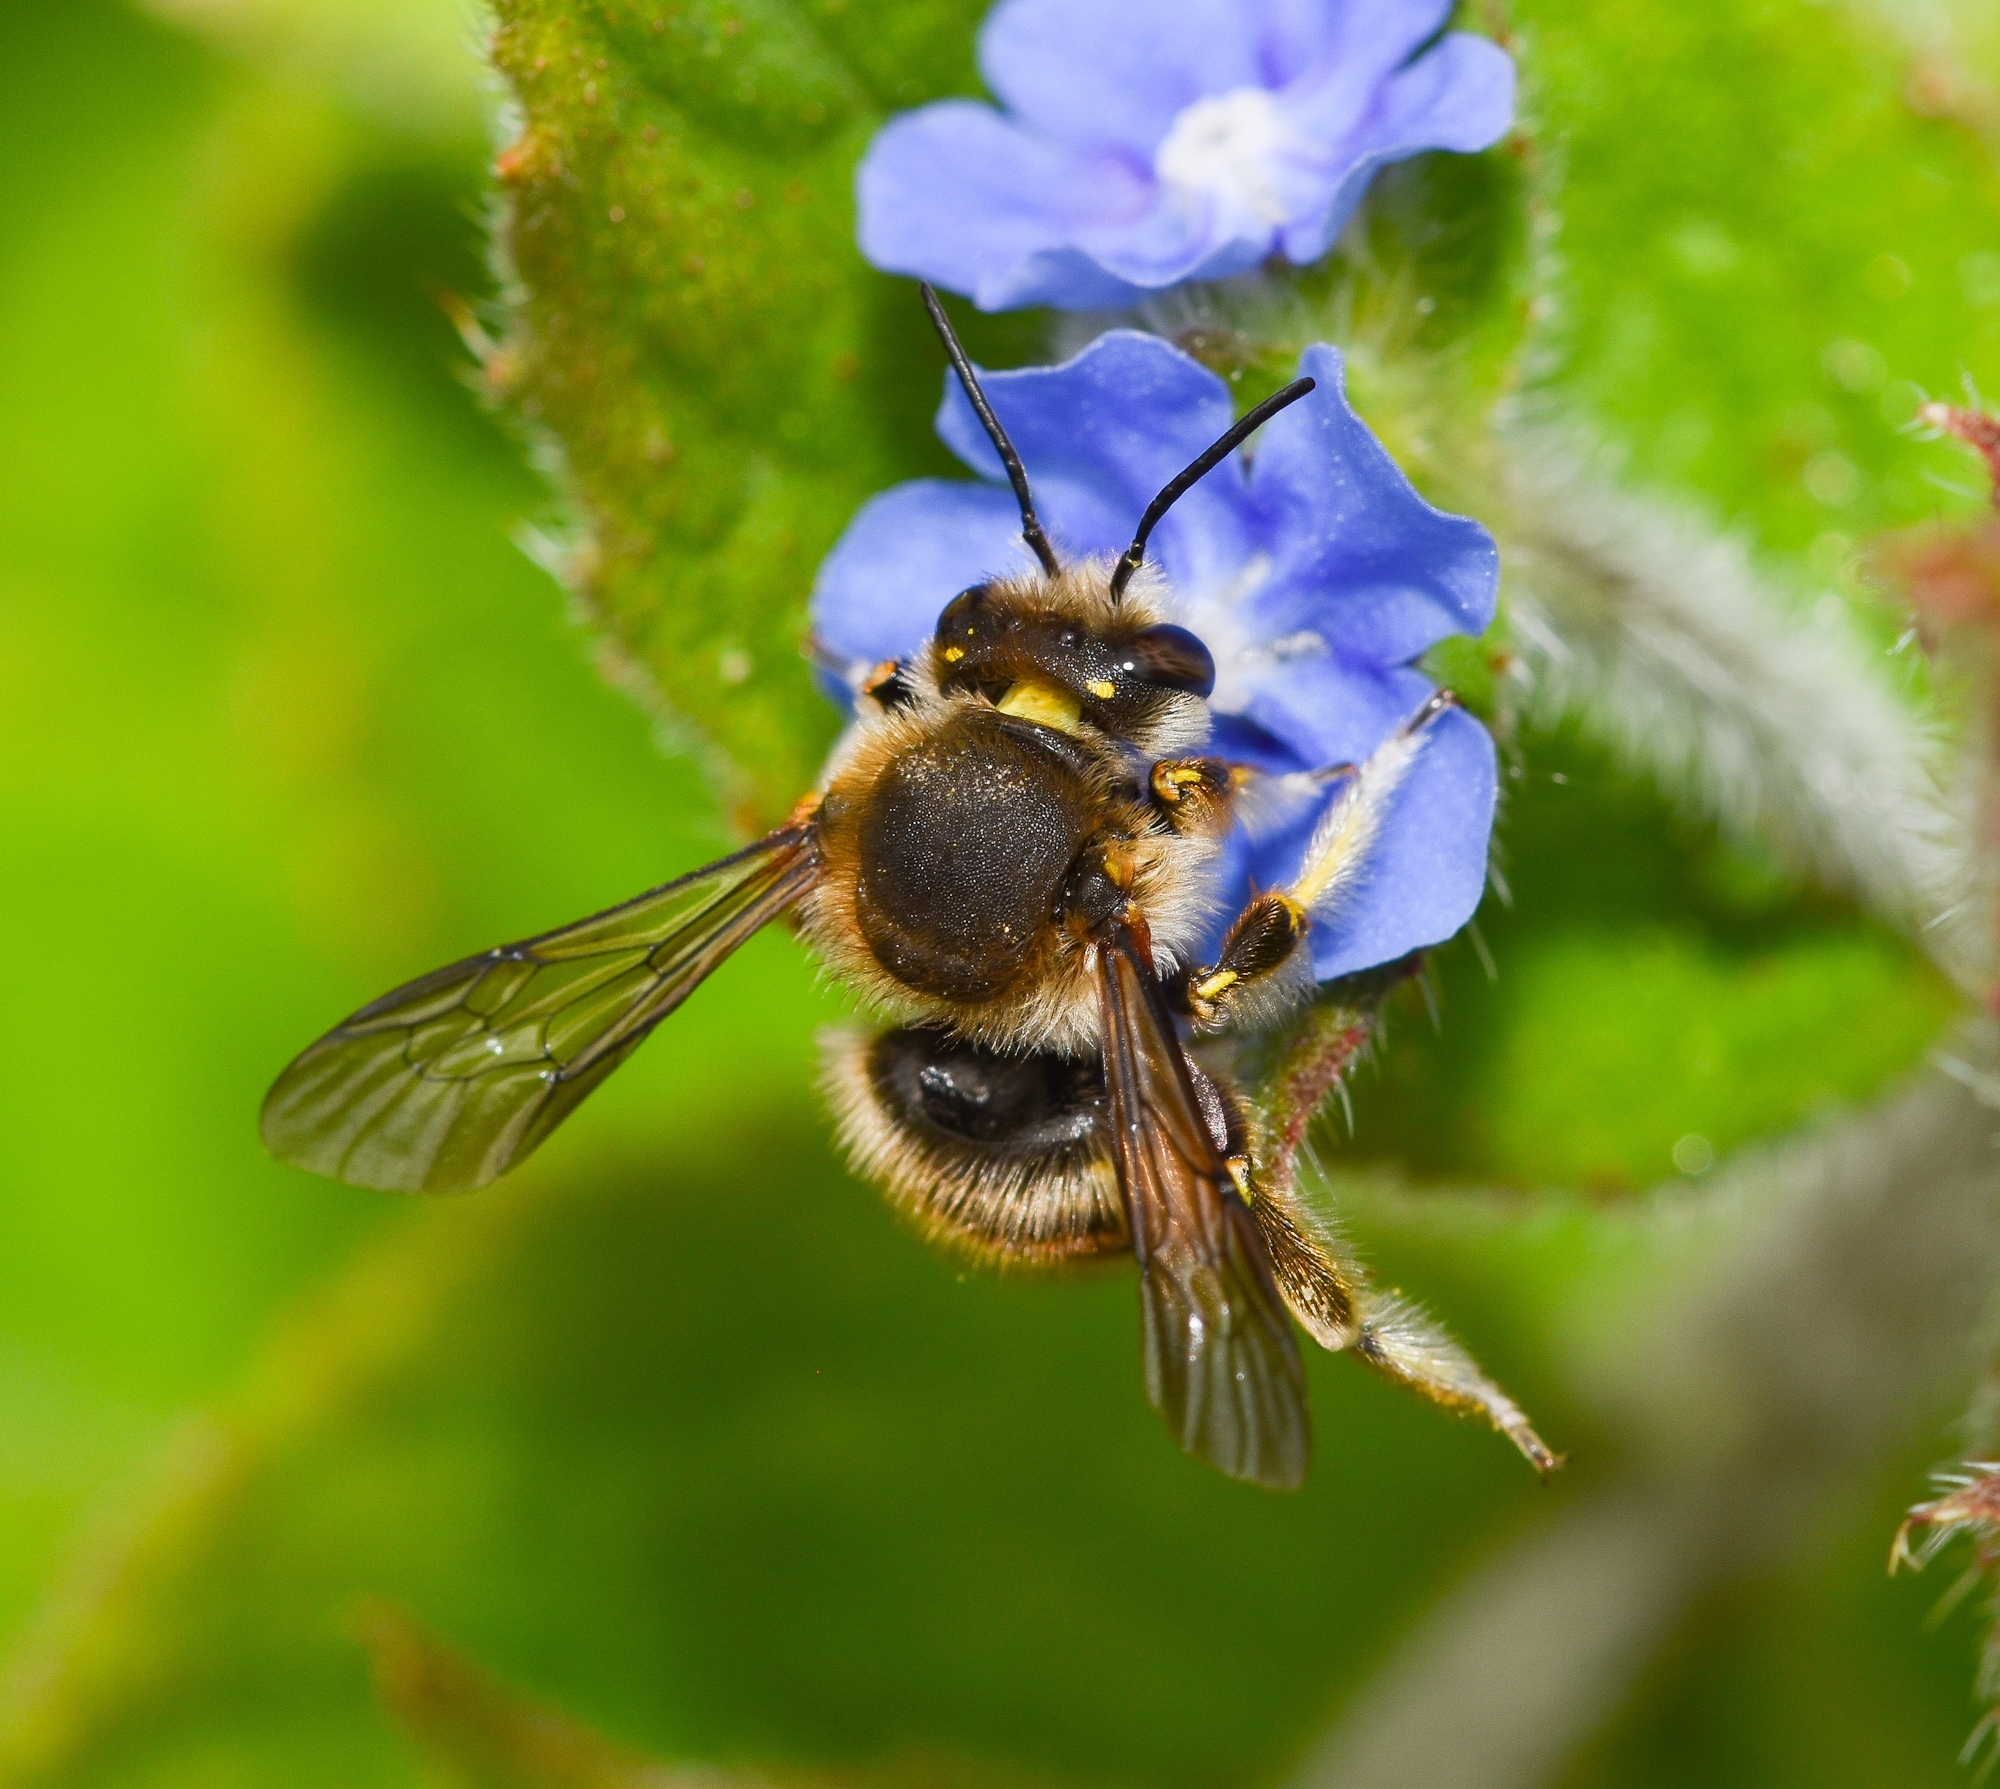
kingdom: Animalia
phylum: Arthropoda
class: Insecta
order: Hymenoptera
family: Megachilidae
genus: Anthidium
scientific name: Anthidium manicatum
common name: Wool carder bee
